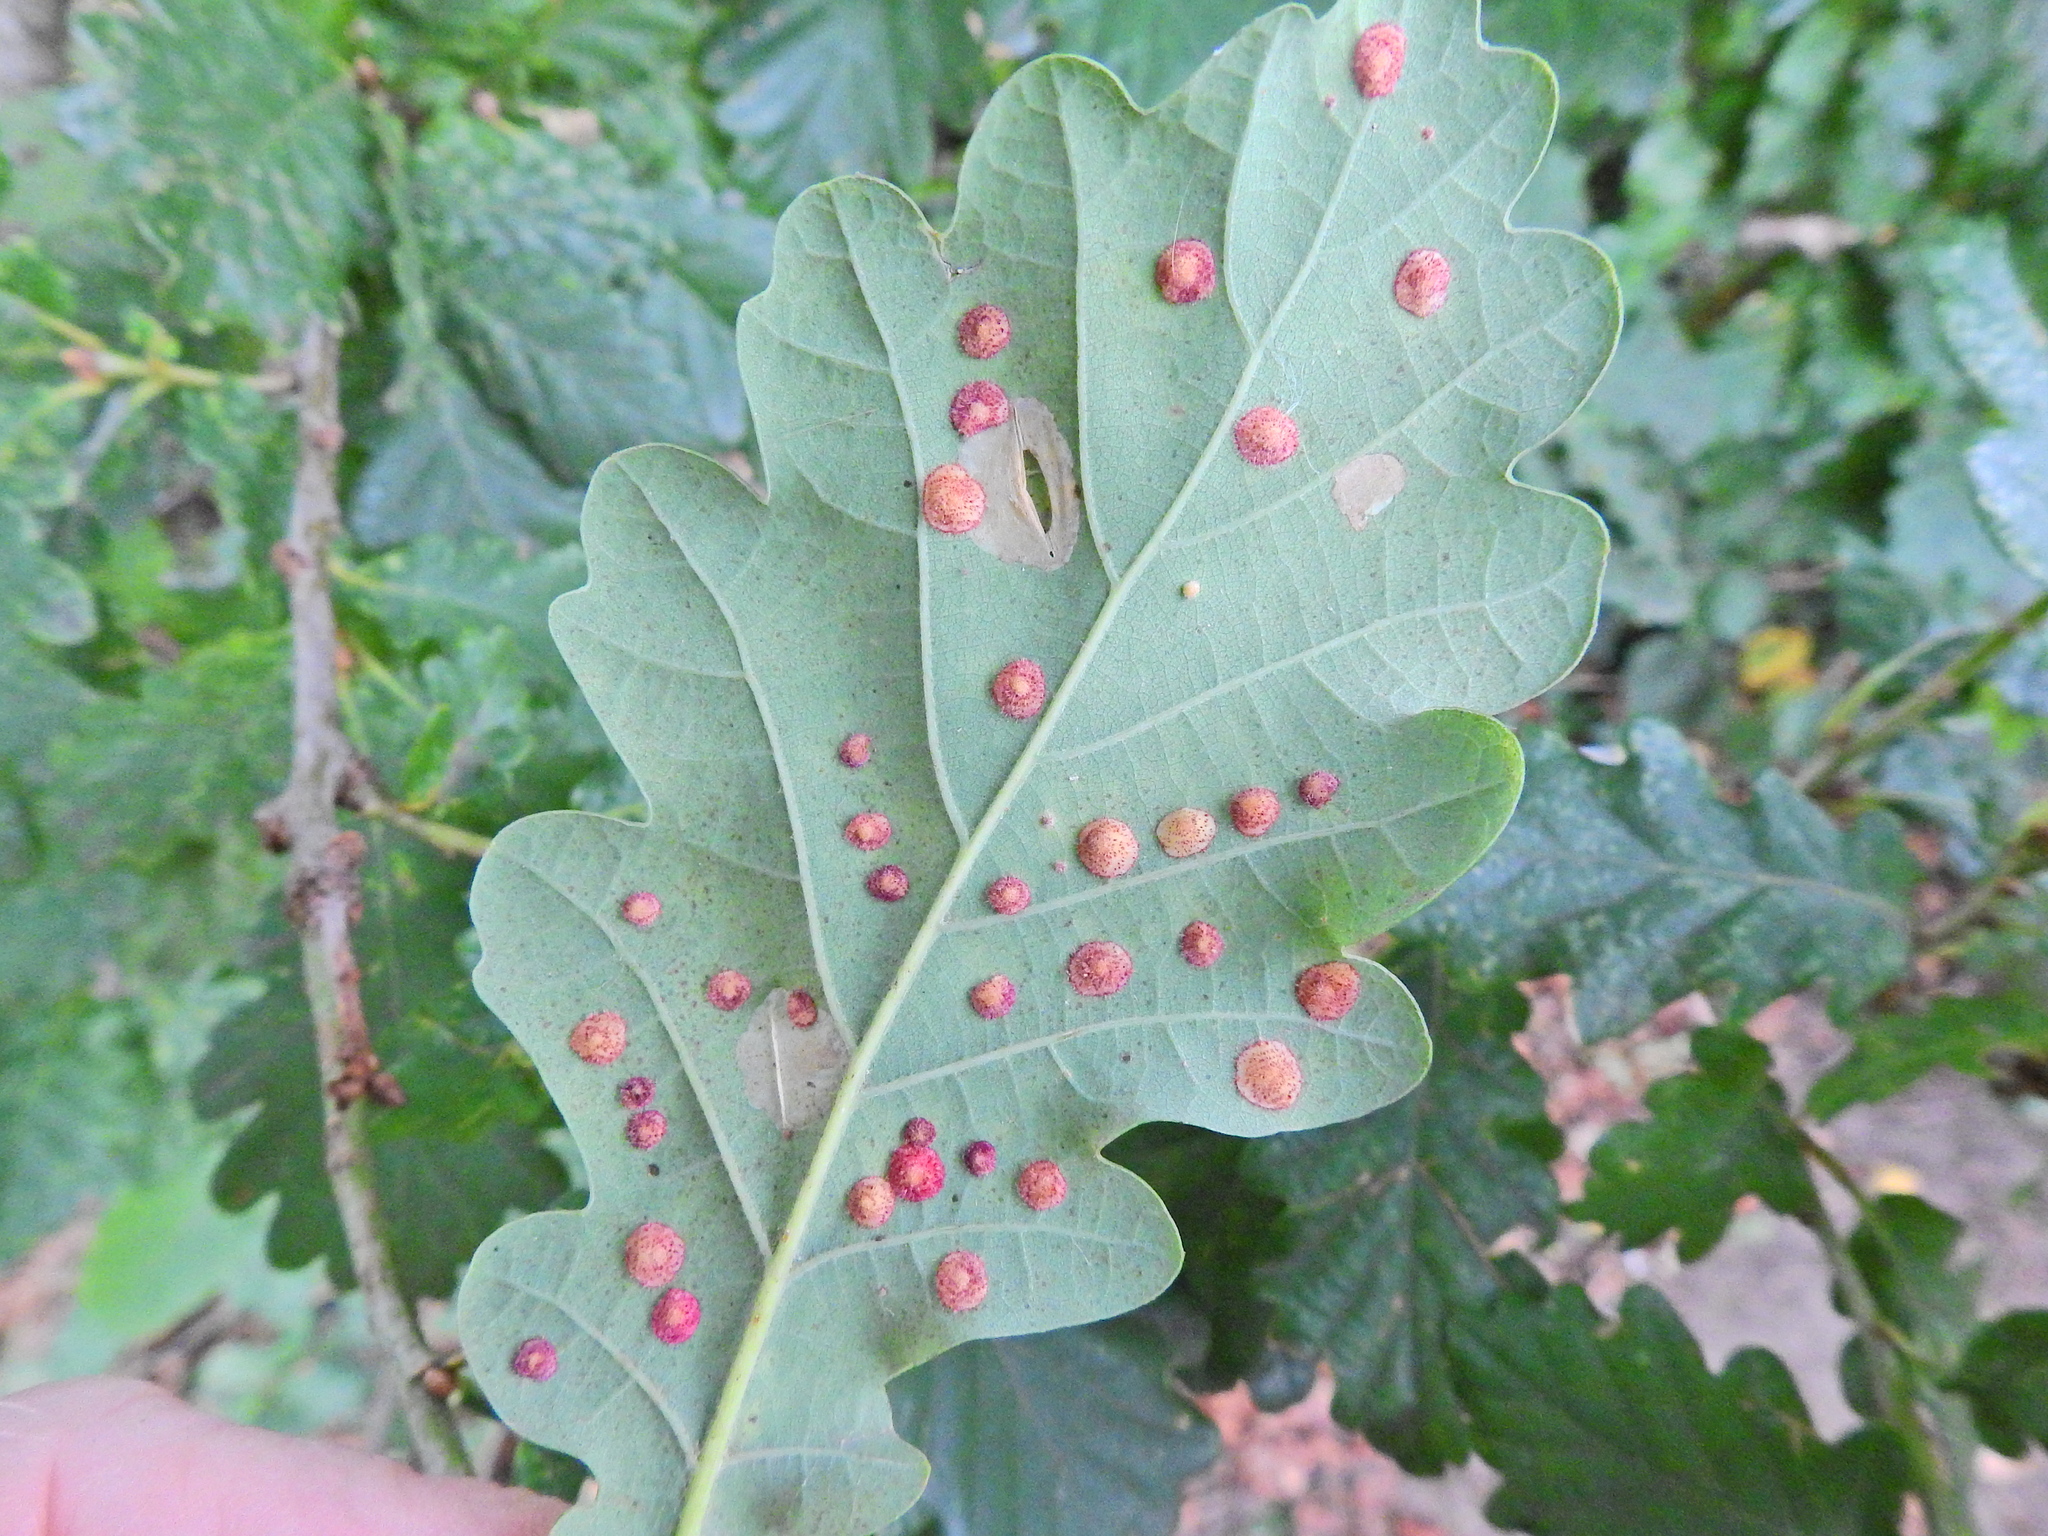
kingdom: Animalia
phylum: Arthropoda
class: Insecta
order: Hymenoptera
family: Cynipidae
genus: Neuroterus
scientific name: Neuroterus quercusbaccarum
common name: Common spangle gall
